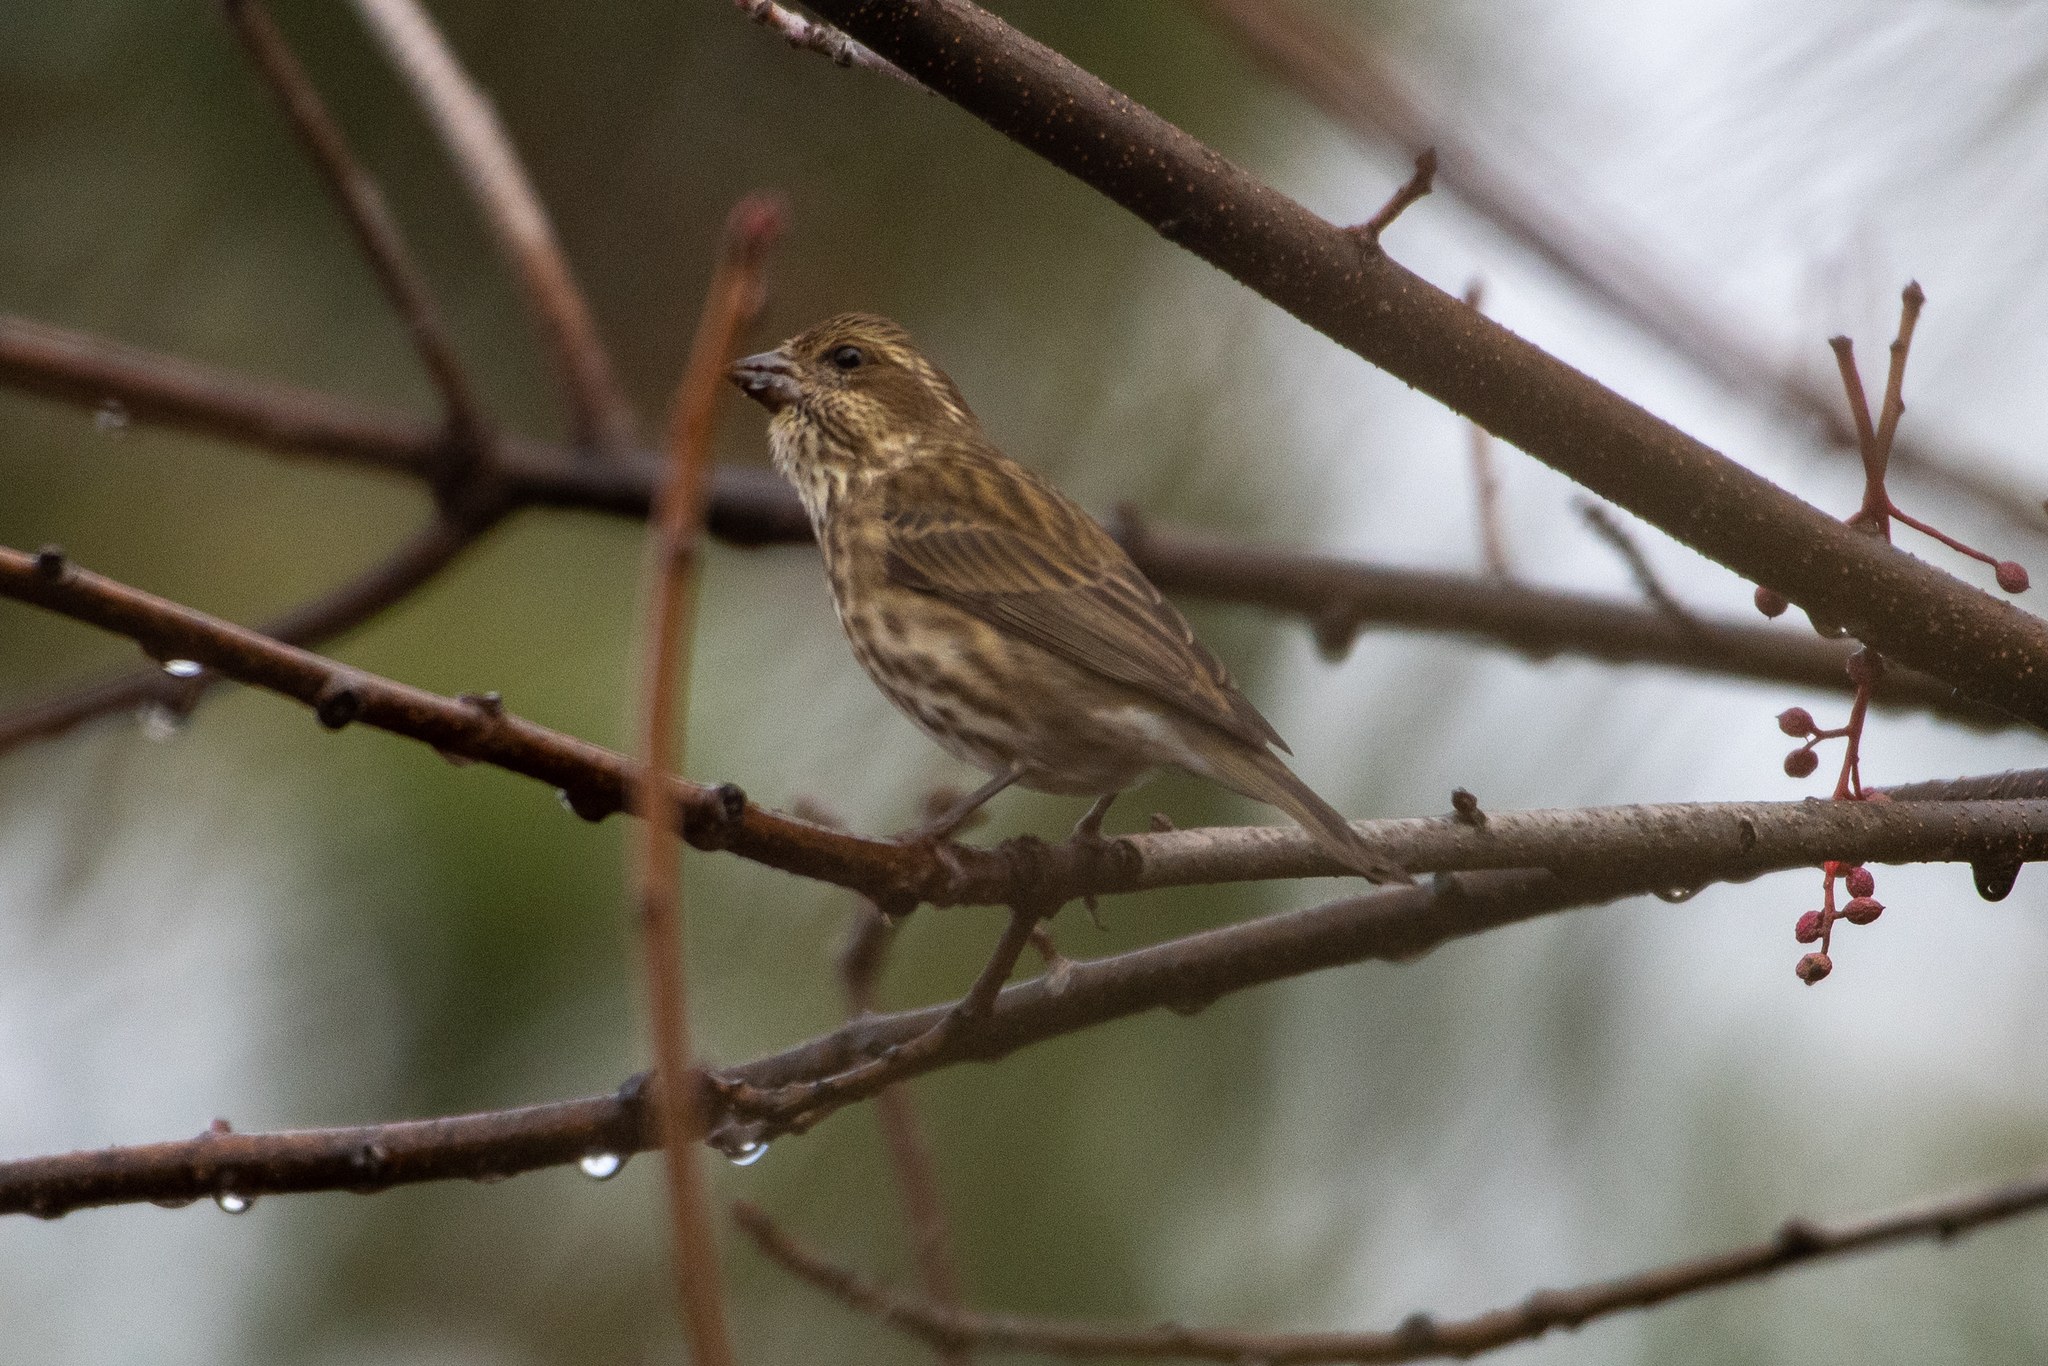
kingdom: Animalia
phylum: Chordata
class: Aves
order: Passeriformes
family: Fringillidae
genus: Haemorhous
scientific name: Haemorhous purpureus
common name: Purple finch
